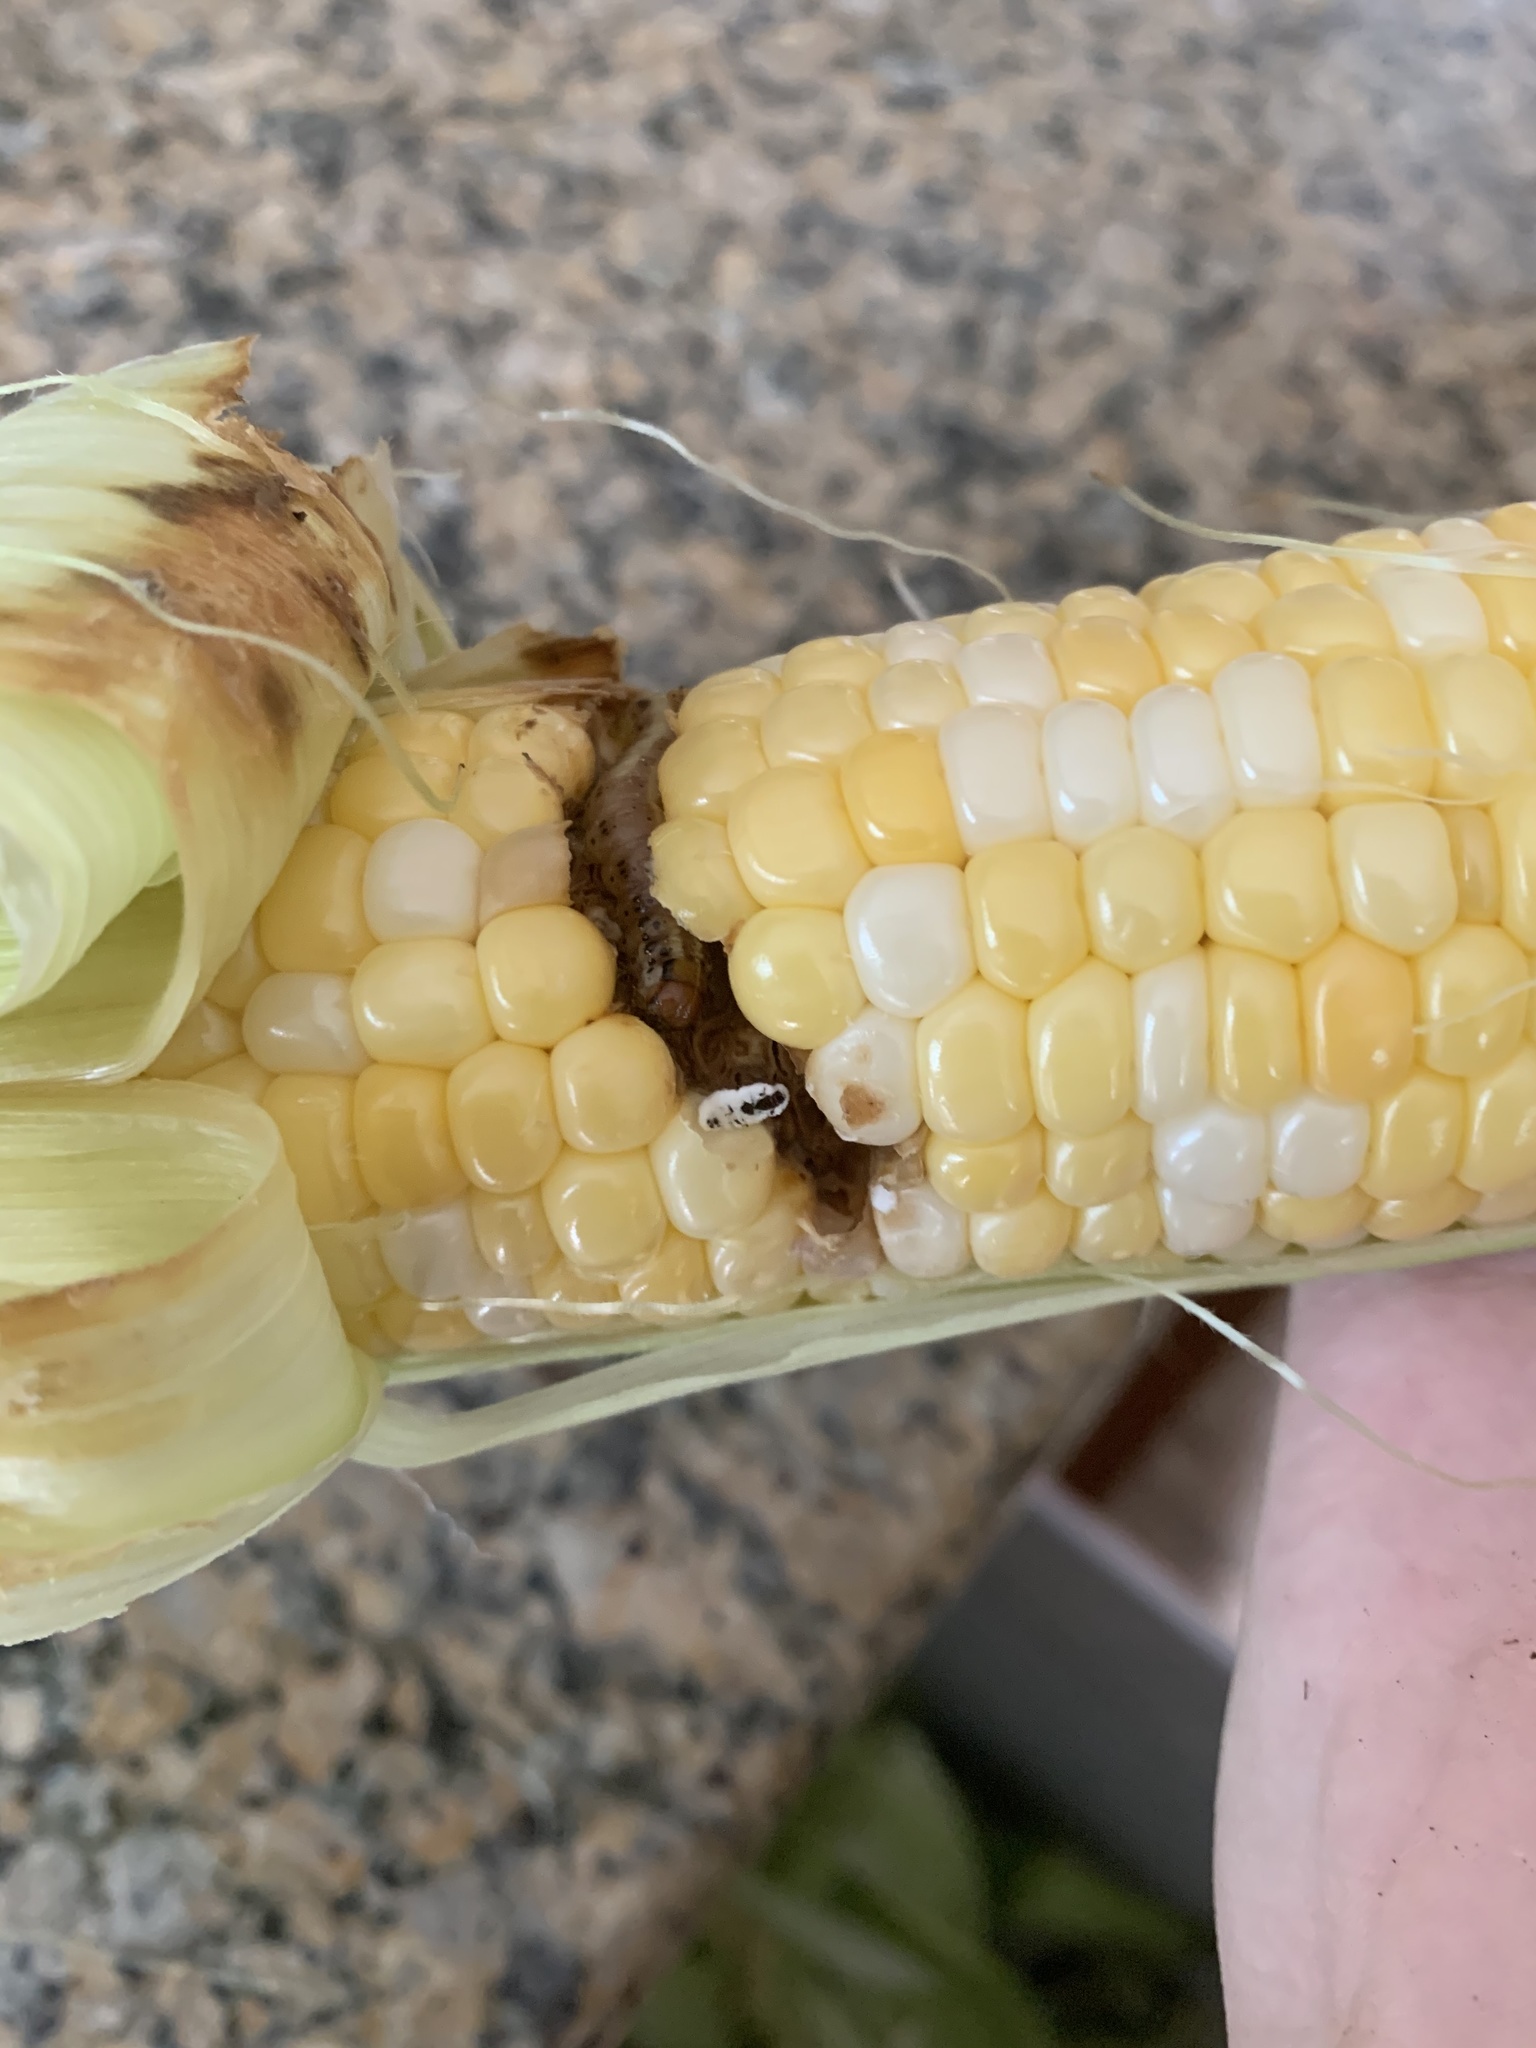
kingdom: Animalia
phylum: Arthropoda
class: Insecta
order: Lepidoptera
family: Noctuidae
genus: Helicoverpa
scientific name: Helicoverpa zea
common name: Bollworm
